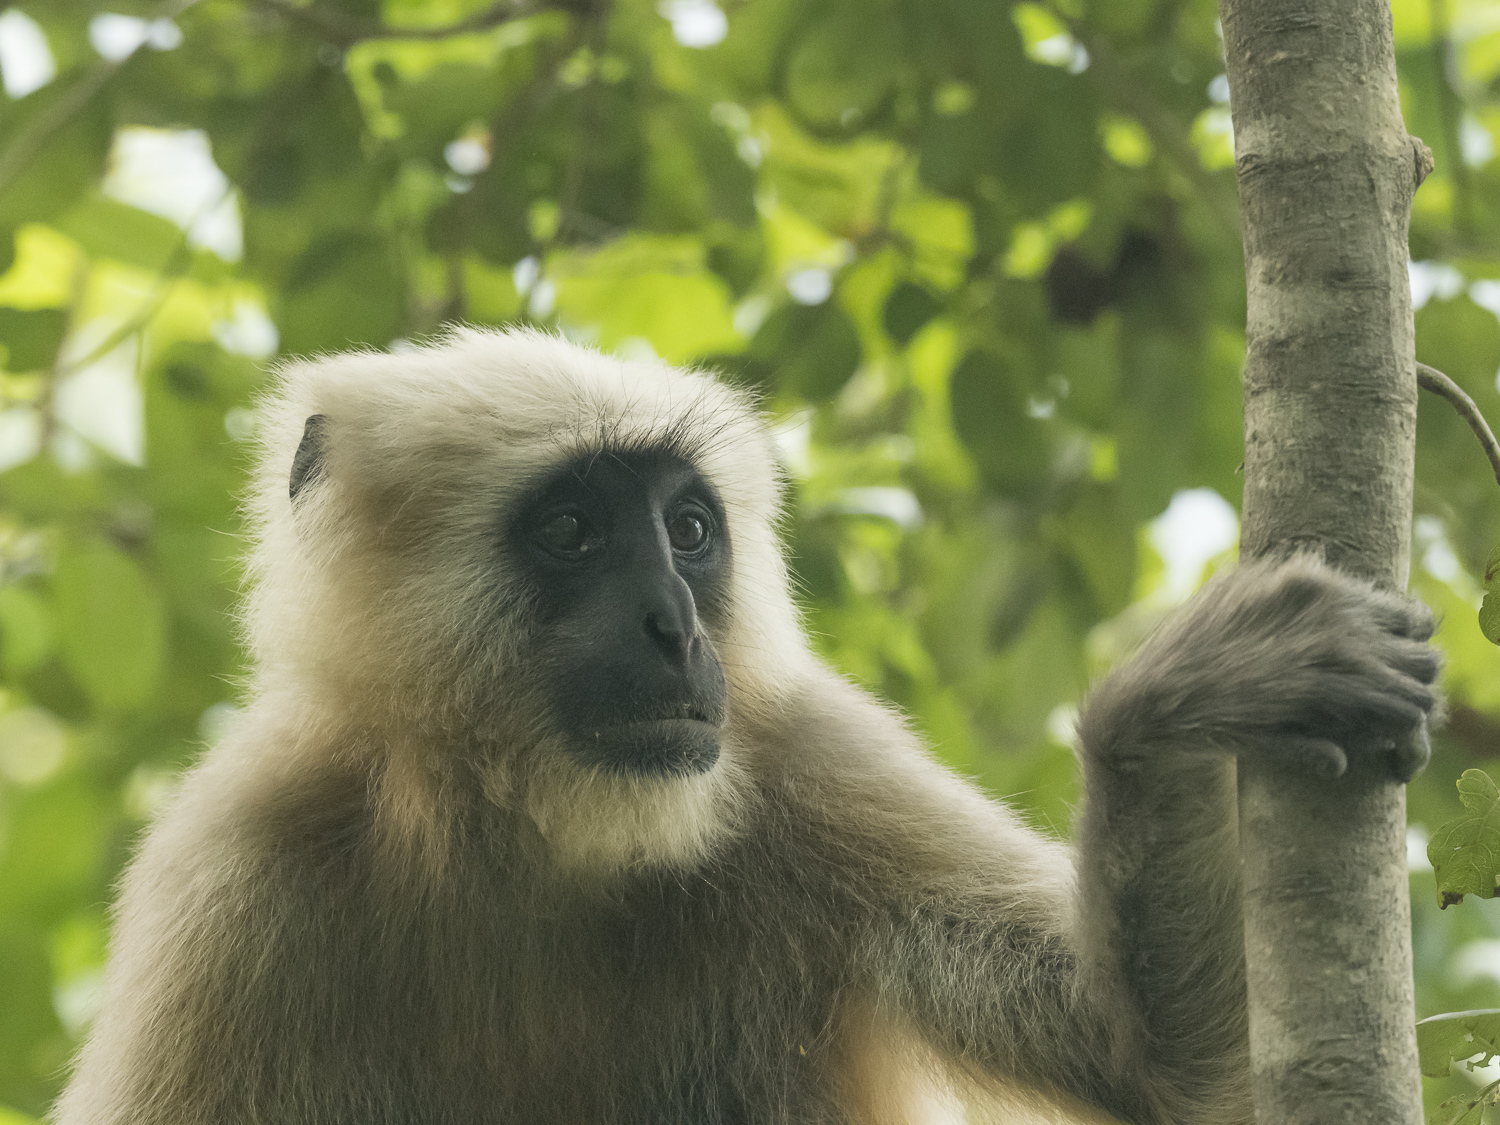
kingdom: Animalia
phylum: Chordata
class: Mammalia
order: Primates
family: Cercopithecidae
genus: Semnopithecus
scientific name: Semnopithecus schistaceus
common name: Nepal gray langur
